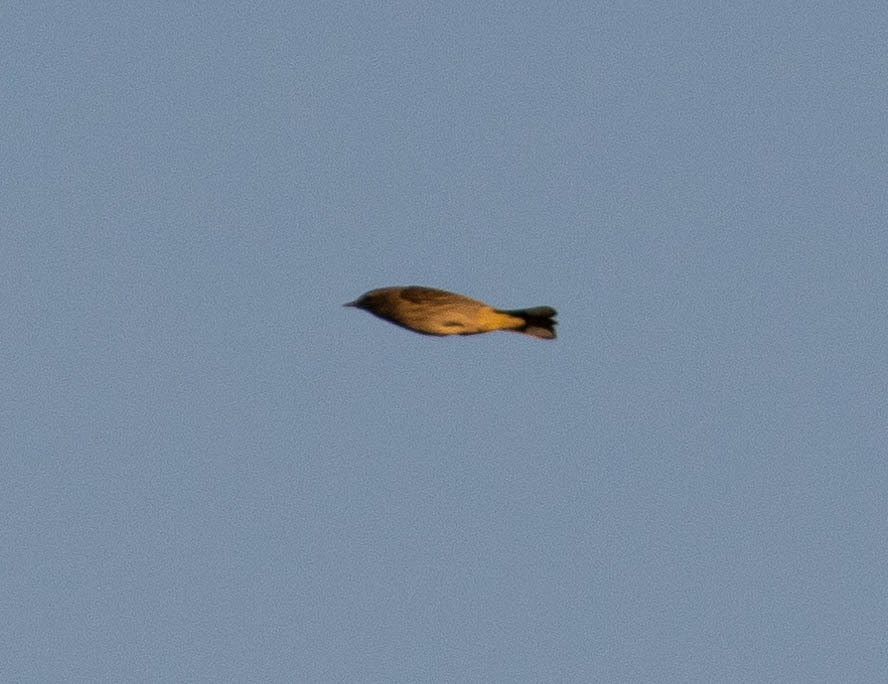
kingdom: Animalia
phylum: Chordata
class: Aves
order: Passeriformes
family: Parulidae
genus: Setophaga
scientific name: Setophaga palmarum
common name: Palm warbler
